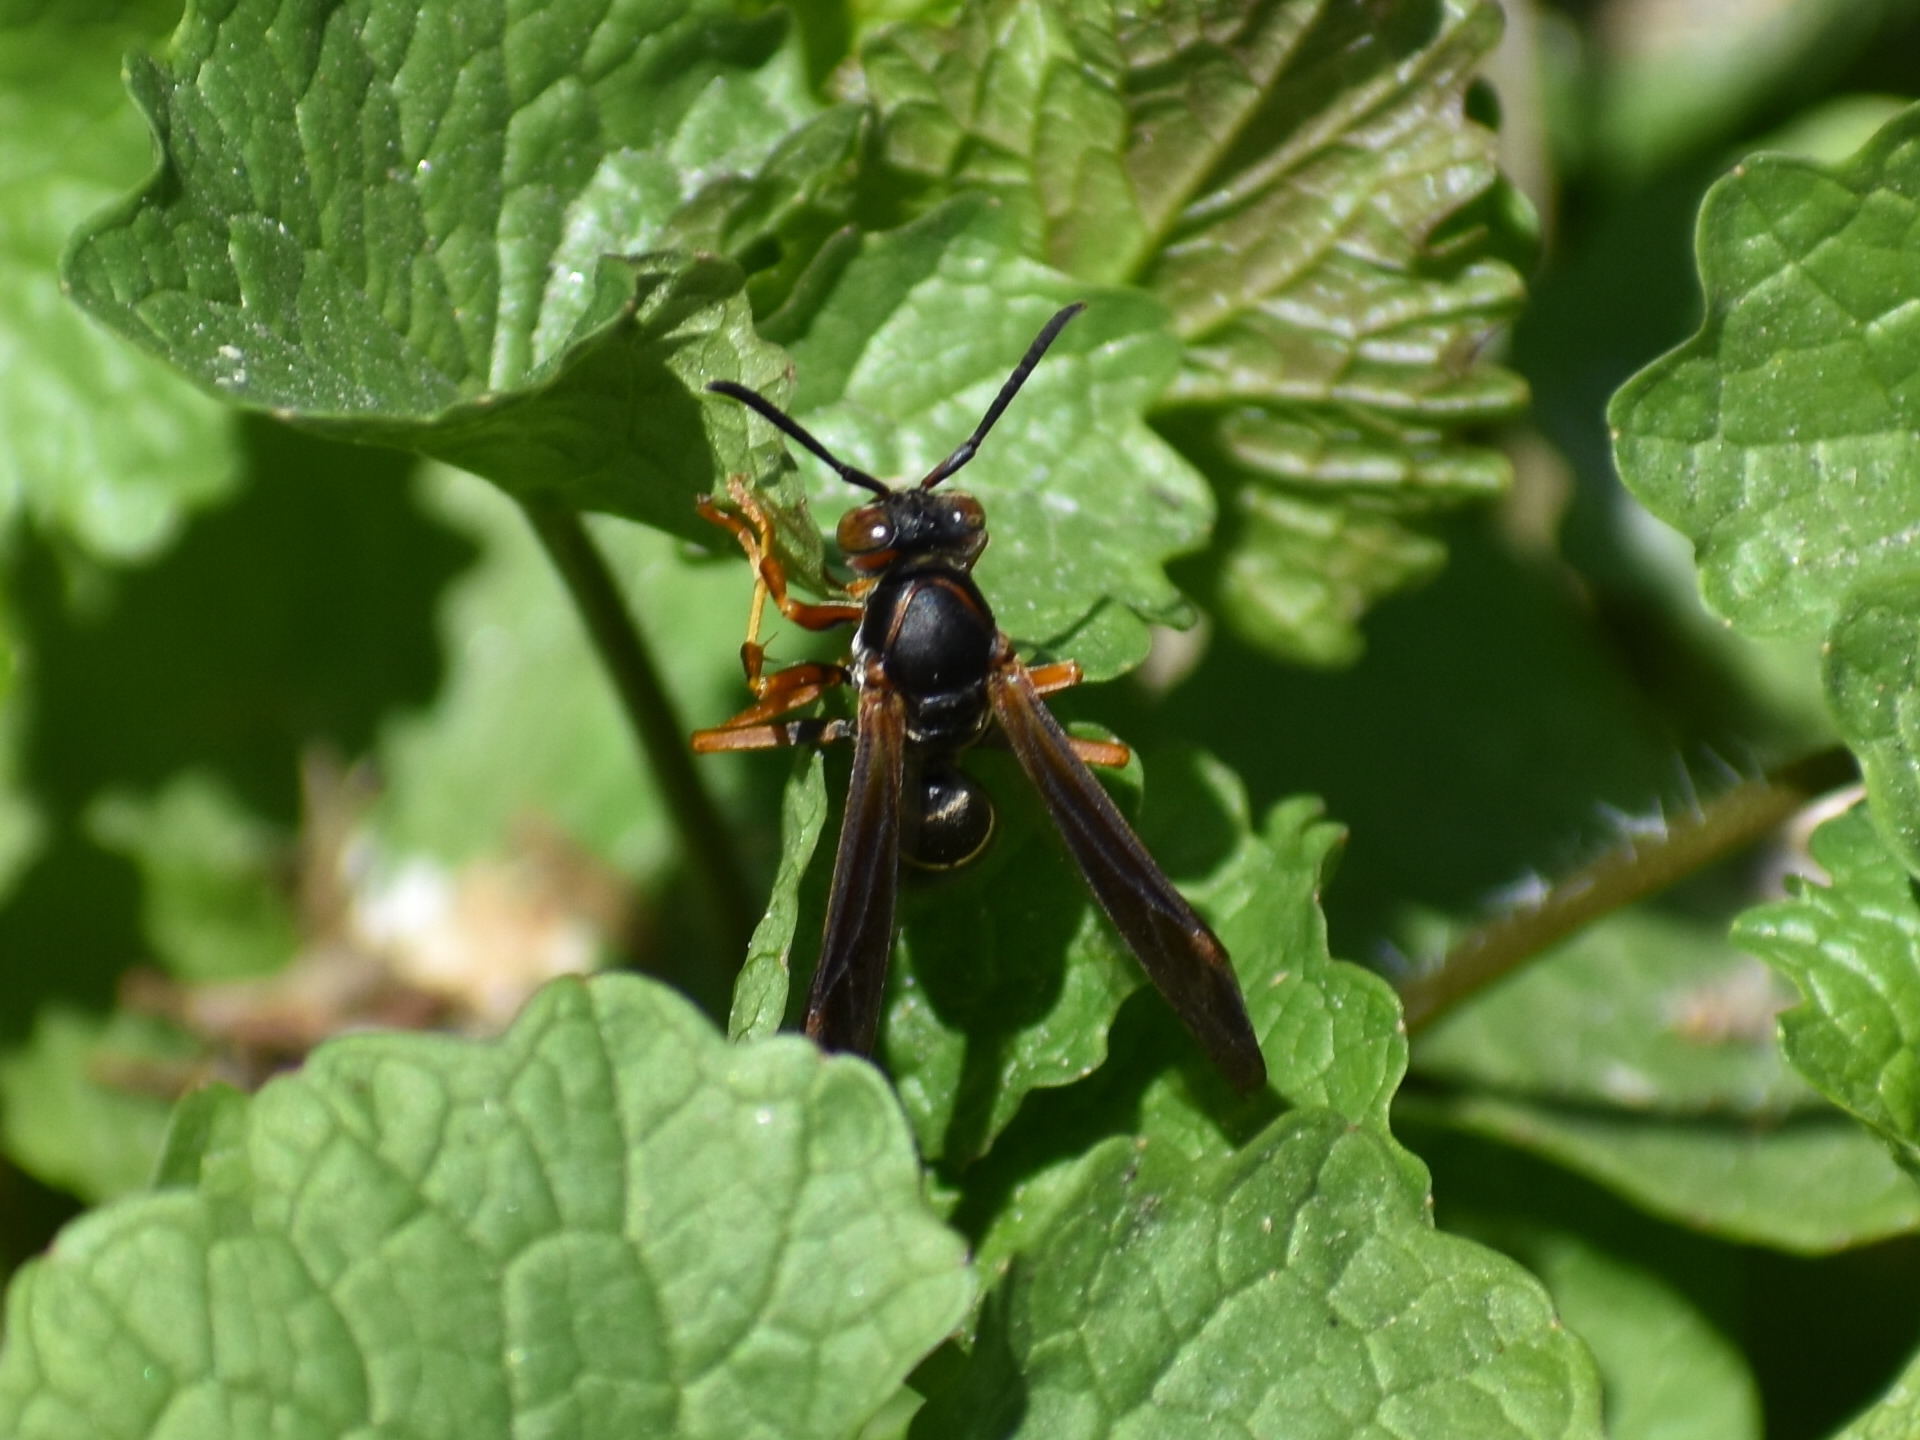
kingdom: Animalia
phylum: Arthropoda
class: Insecta
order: Hymenoptera
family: Eumenidae
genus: Polistes
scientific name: Polistes fuscatus
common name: Dark paper wasp
